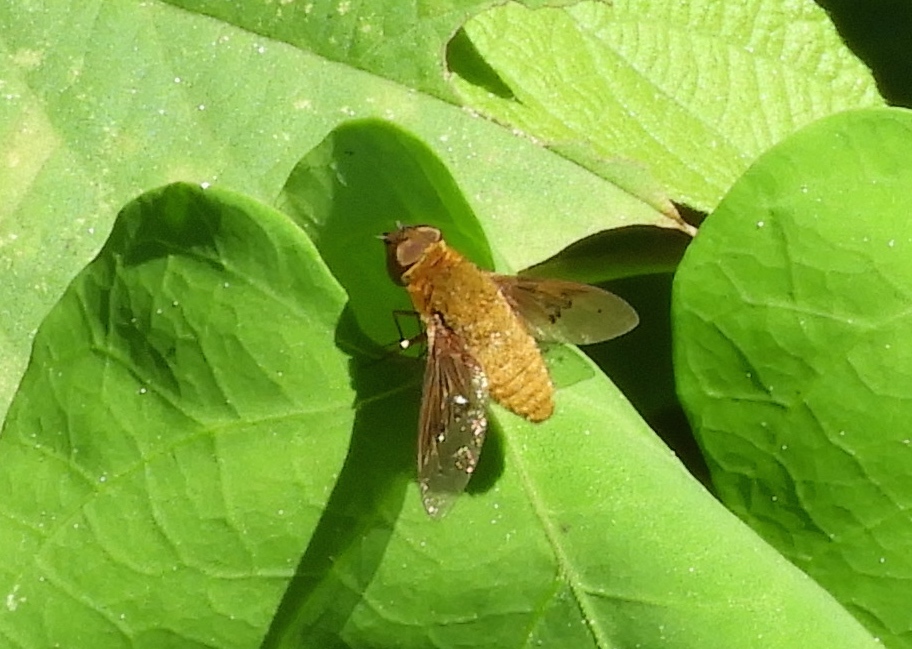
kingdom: Animalia
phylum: Arthropoda
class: Insecta
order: Diptera
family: Bombyliidae
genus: Chrysanthrax
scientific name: Chrysanthrax edititius
